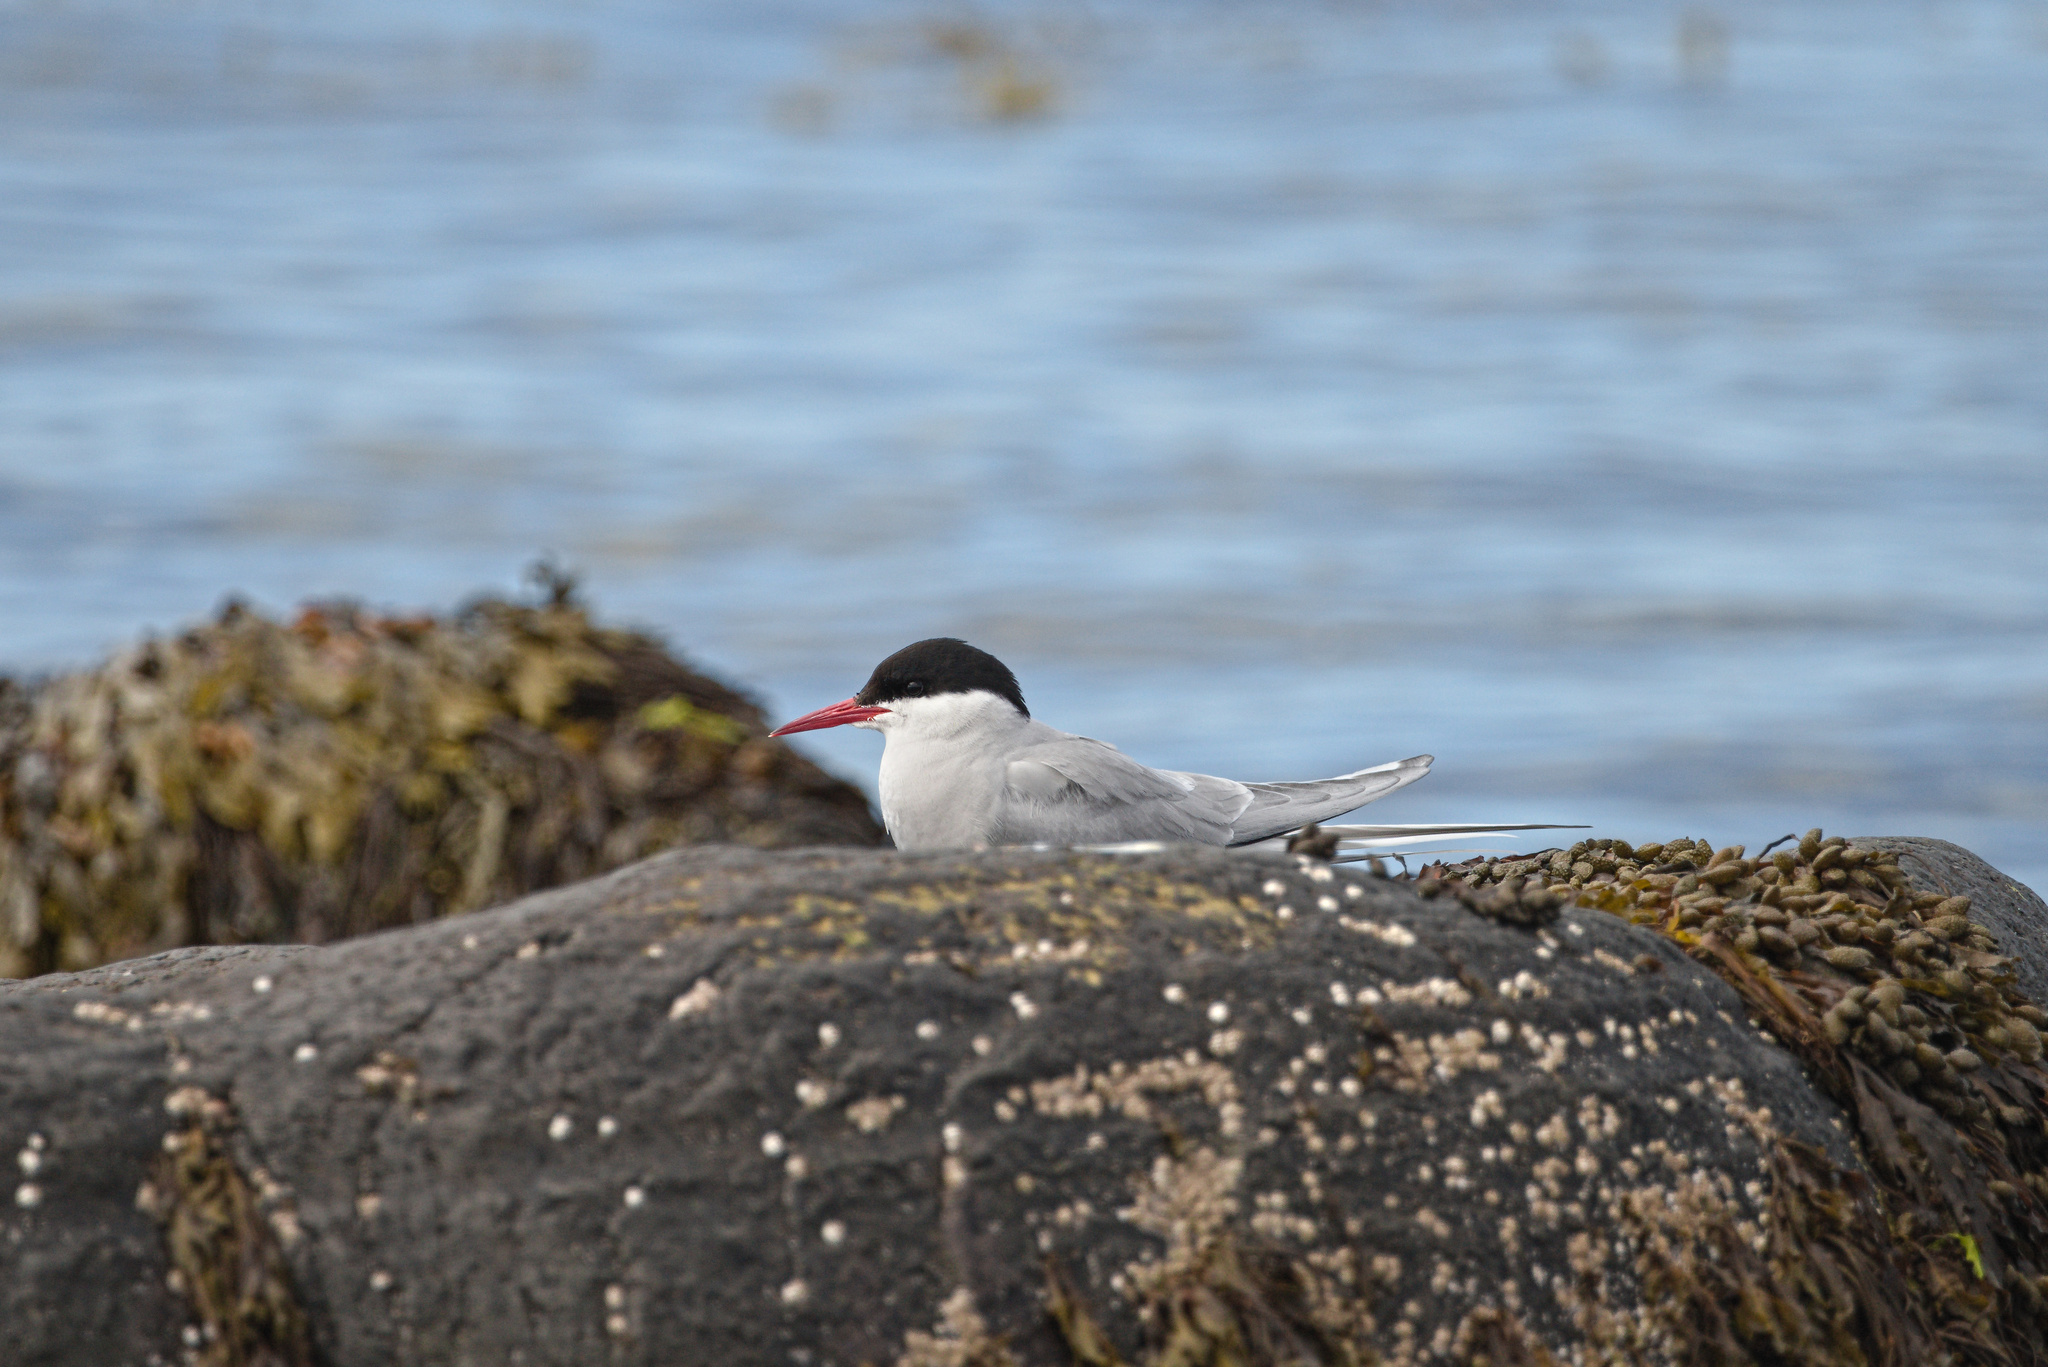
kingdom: Animalia
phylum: Chordata
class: Aves
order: Charadriiformes
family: Laridae
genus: Sterna
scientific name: Sterna paradisaea
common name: Arctic tern
